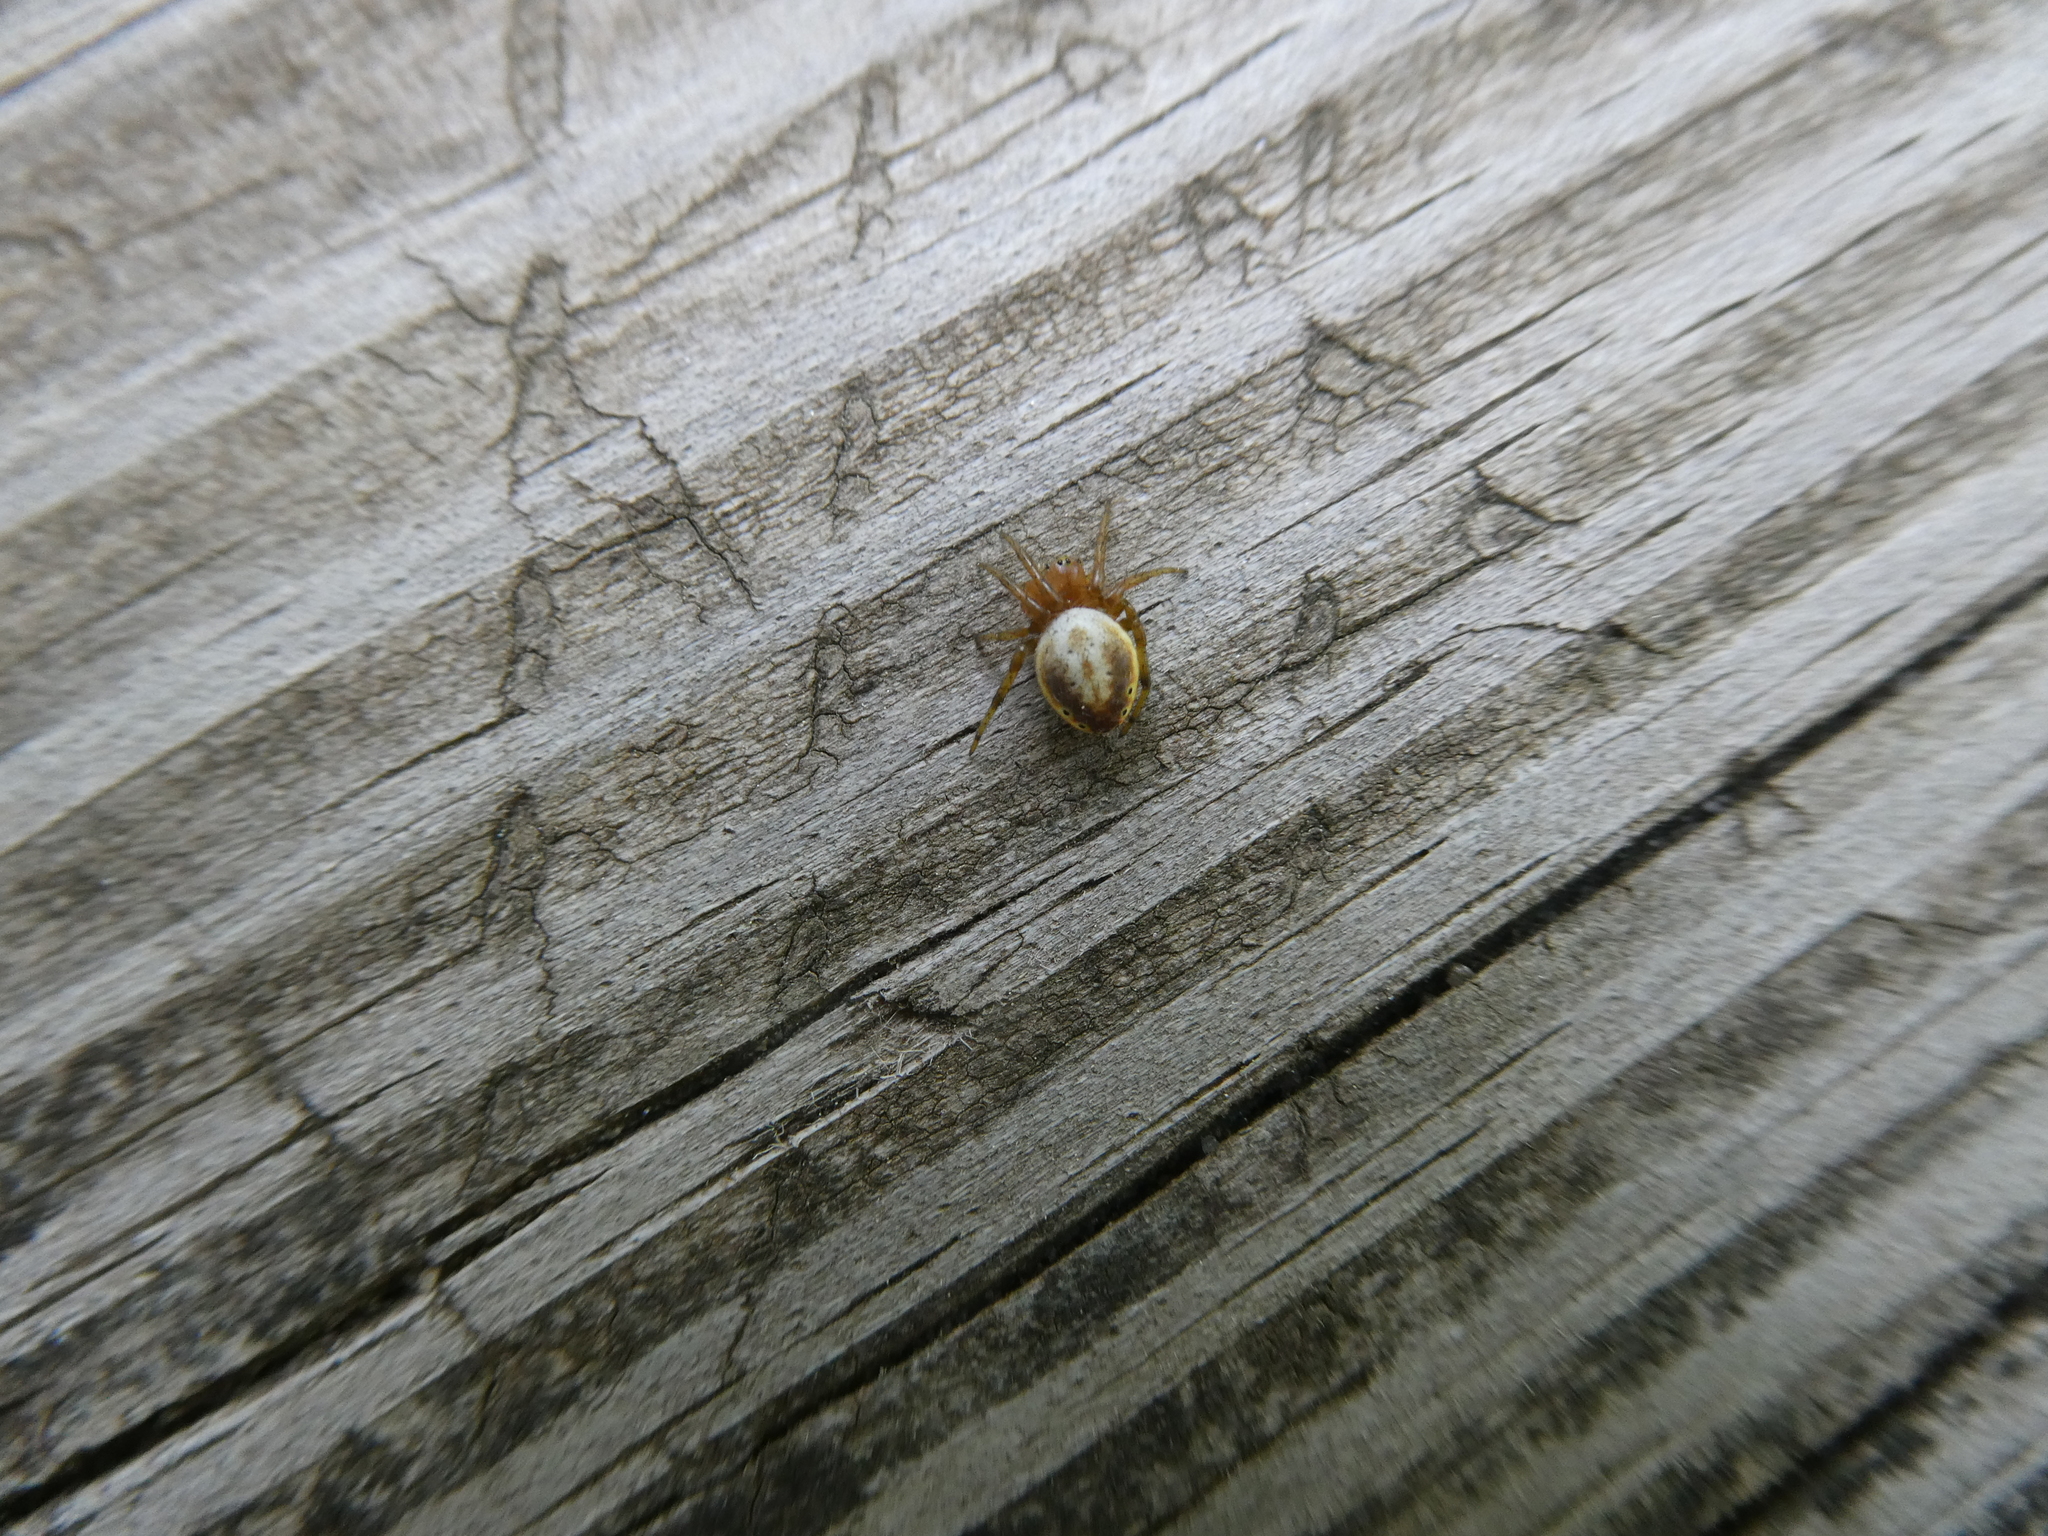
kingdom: Animalia
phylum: Arthropoda
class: Arachnida
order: Araneae
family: Araneidae
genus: Araniella
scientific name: Araniella displicata
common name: Sixspotted orb weaver
